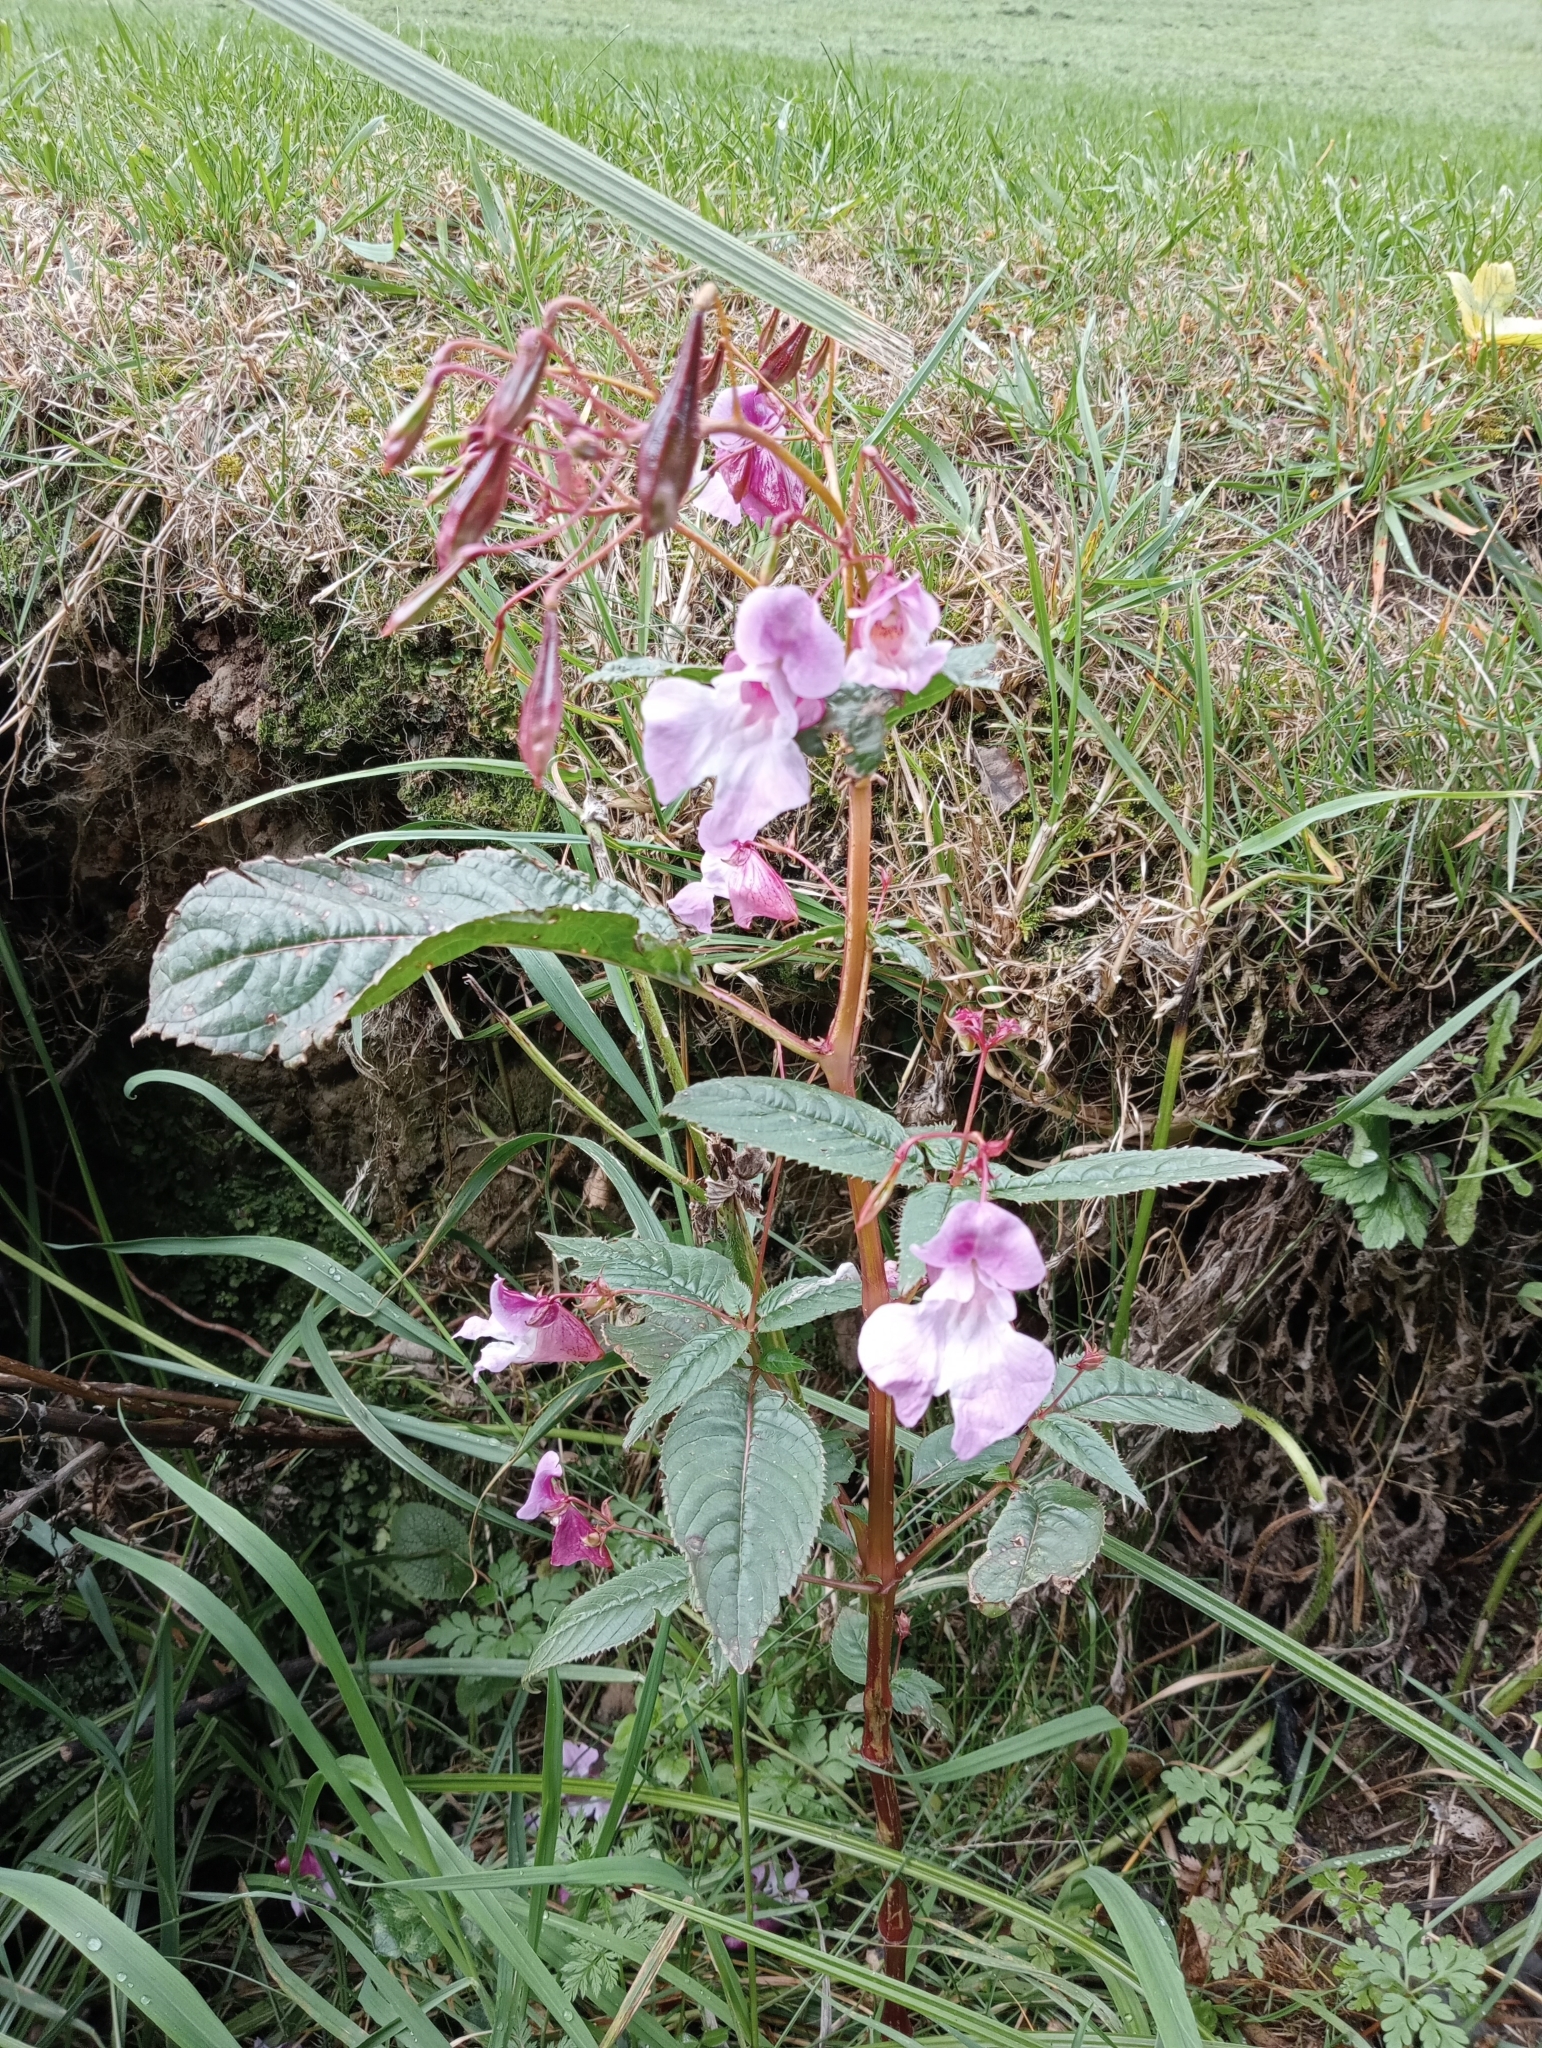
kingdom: Plantae
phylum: Tracheophyta
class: Magnoliopsida
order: Ericales
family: Balsaminaceae
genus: Impatiens
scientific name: Impatiens glandulifera
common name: Himalayan balsam
